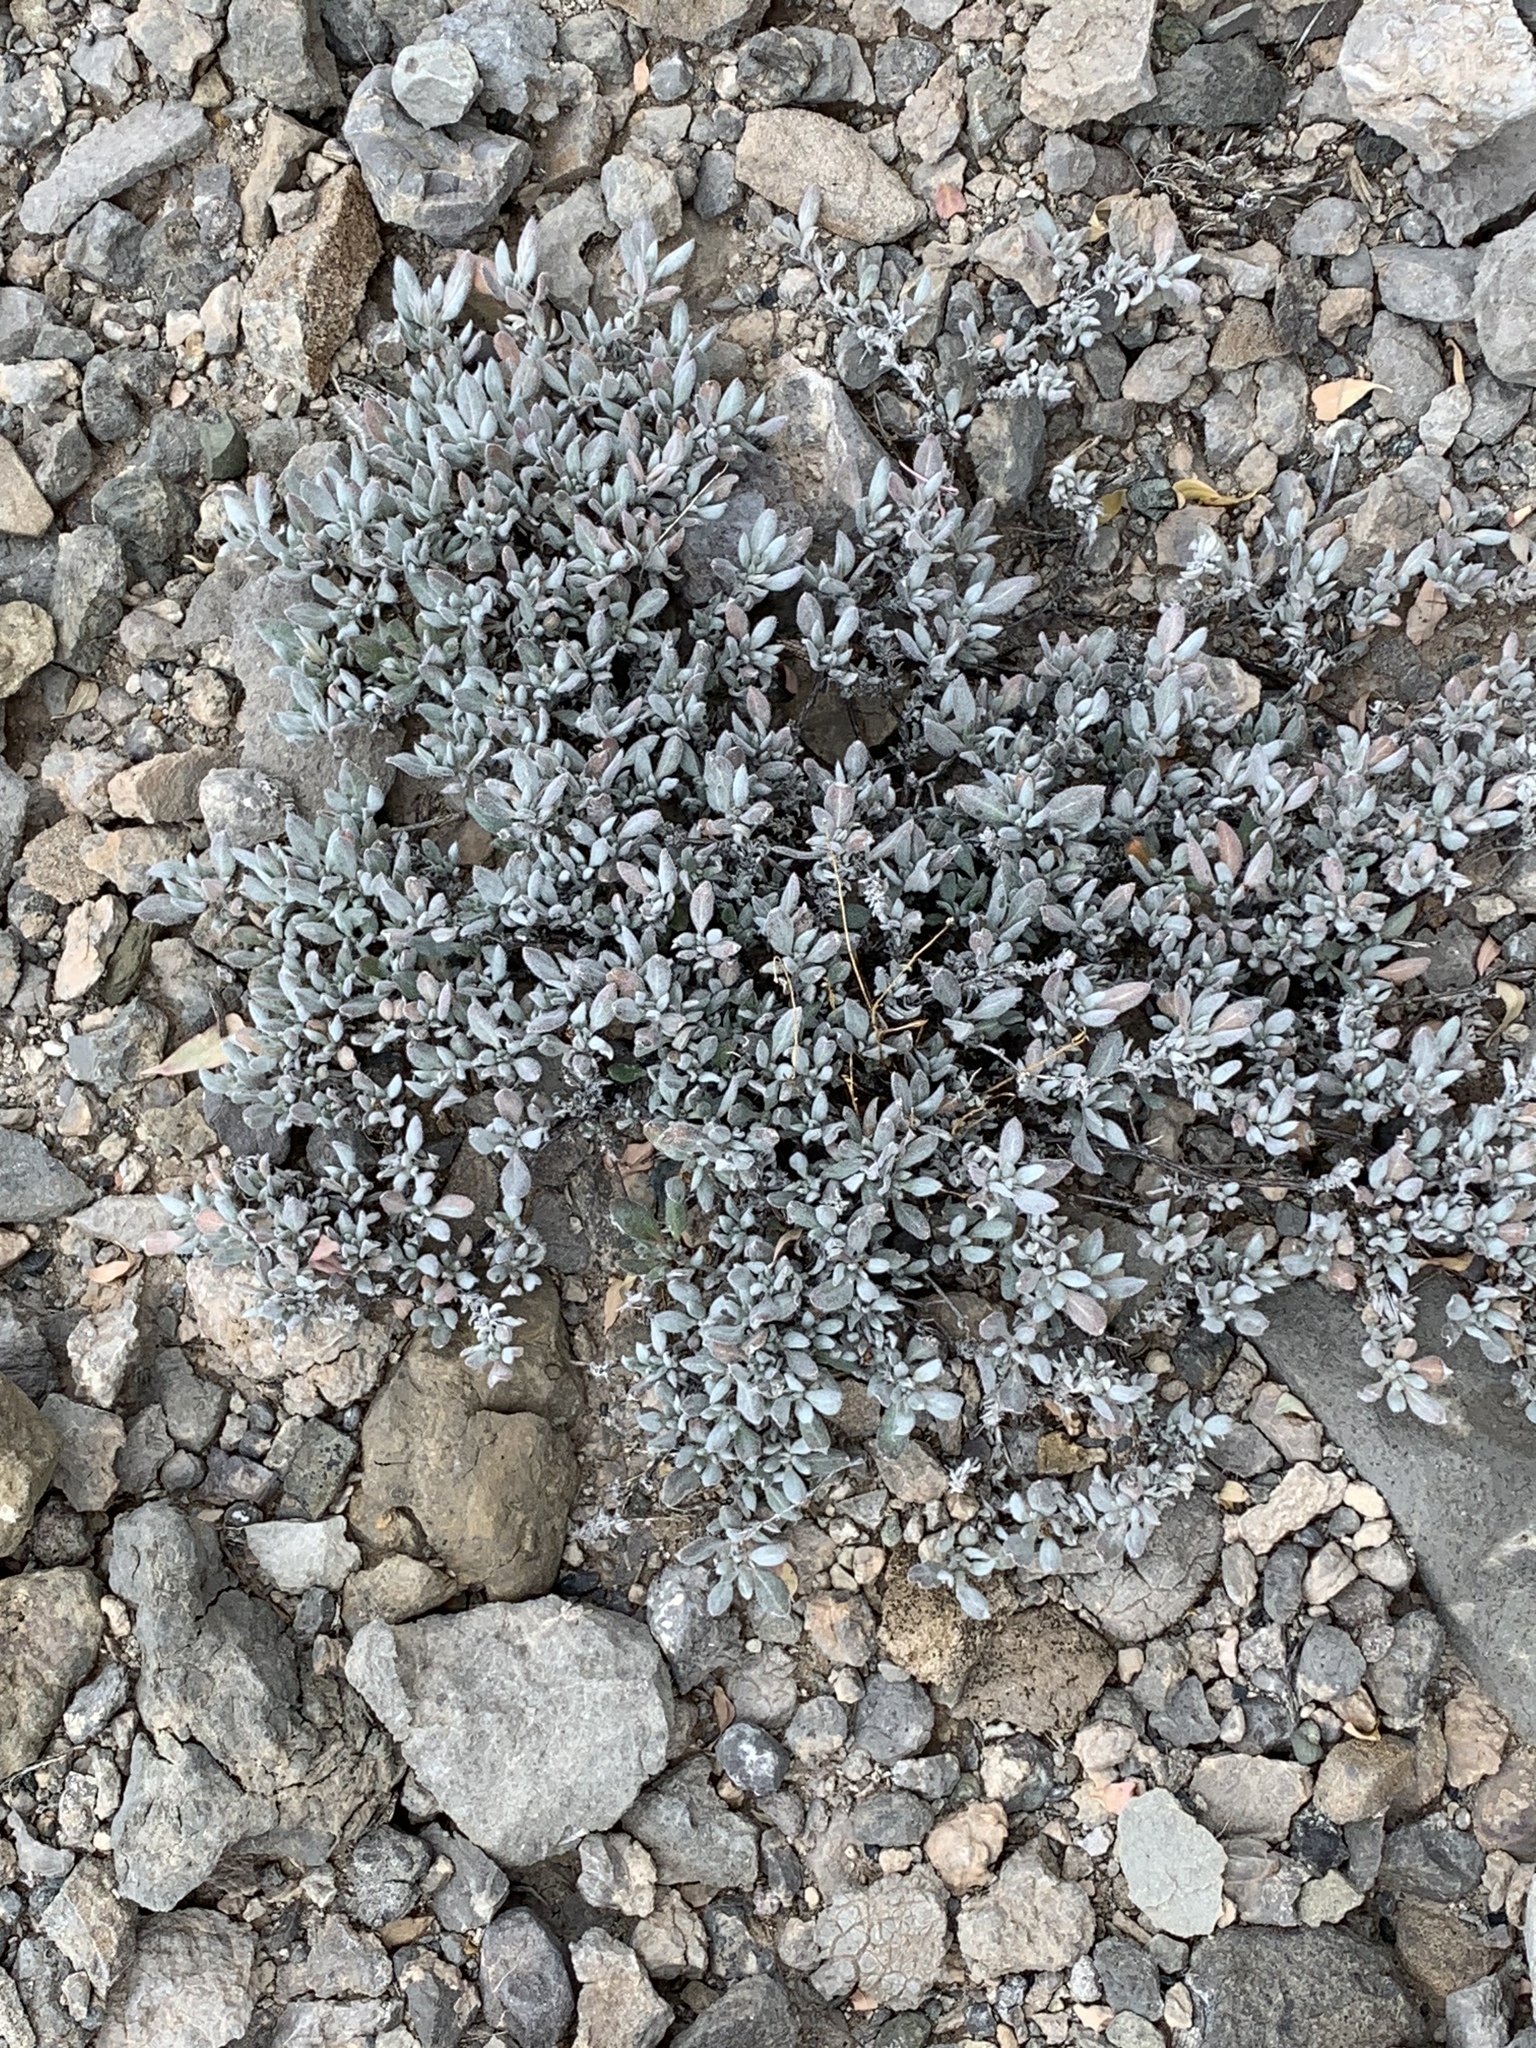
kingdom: Plantae
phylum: Tracheophyta
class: Magnoliopsida
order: Boraginales
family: Ehretiaceae
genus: Tiquilia
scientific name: Tiquilia canescens
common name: Hairy tiquilia
